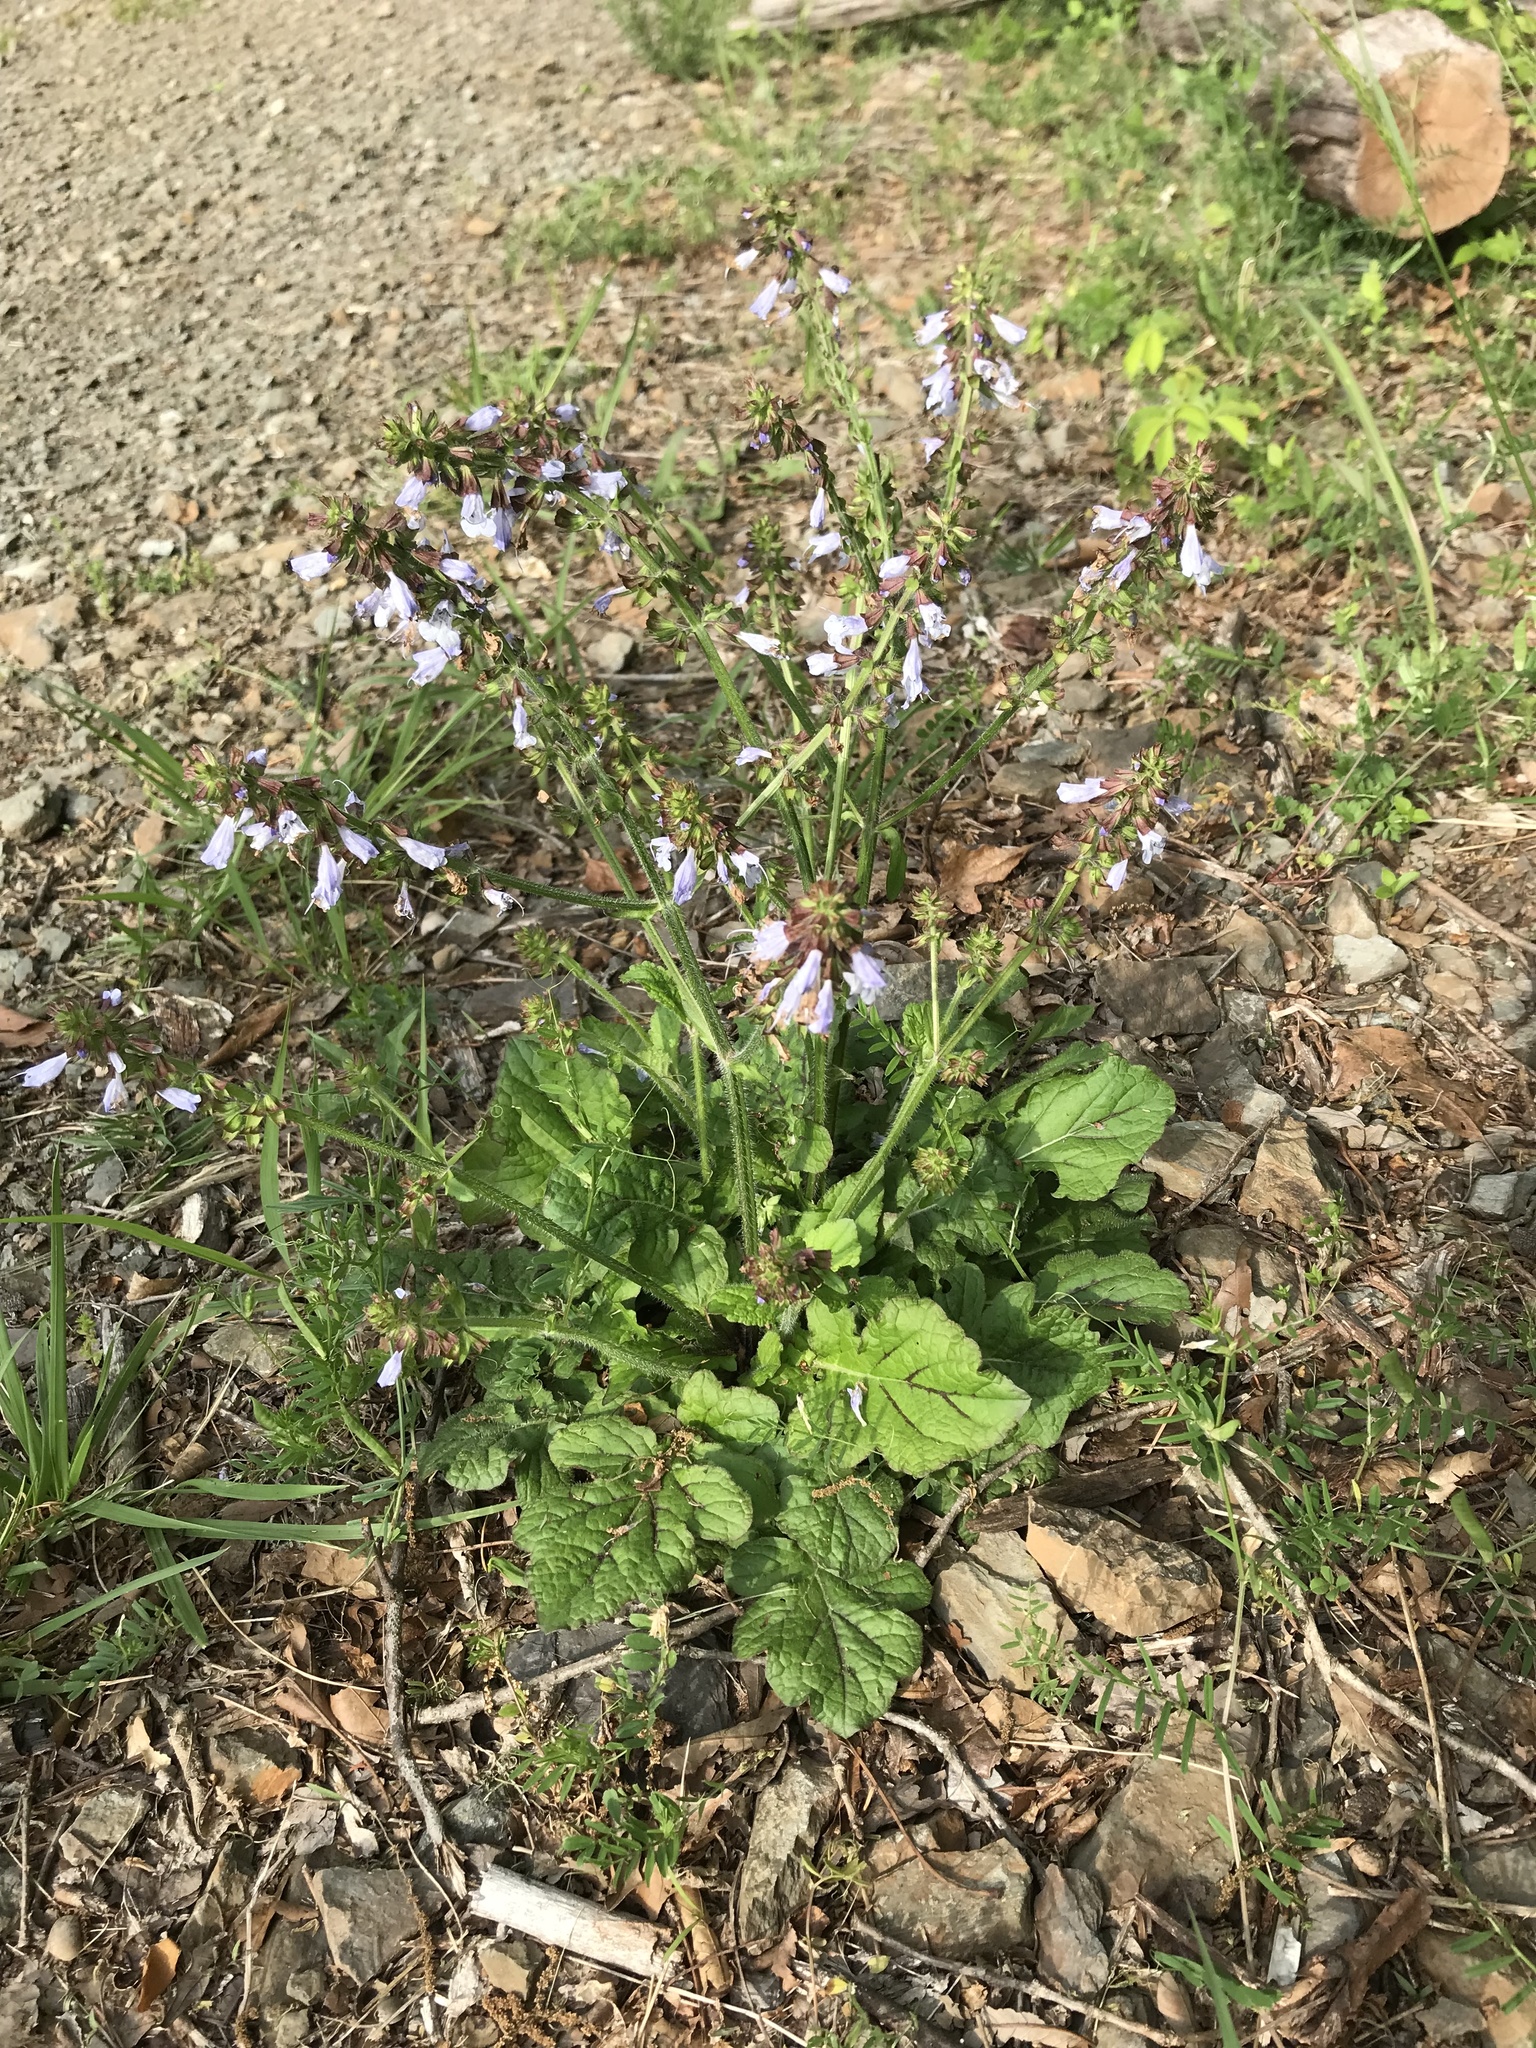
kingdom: Plantae
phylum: Tracheophyta
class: Magnoliopsida
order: Lamiales
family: Lamiaceae
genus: Salvia
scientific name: Salvia lyrata
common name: Cancerweed
